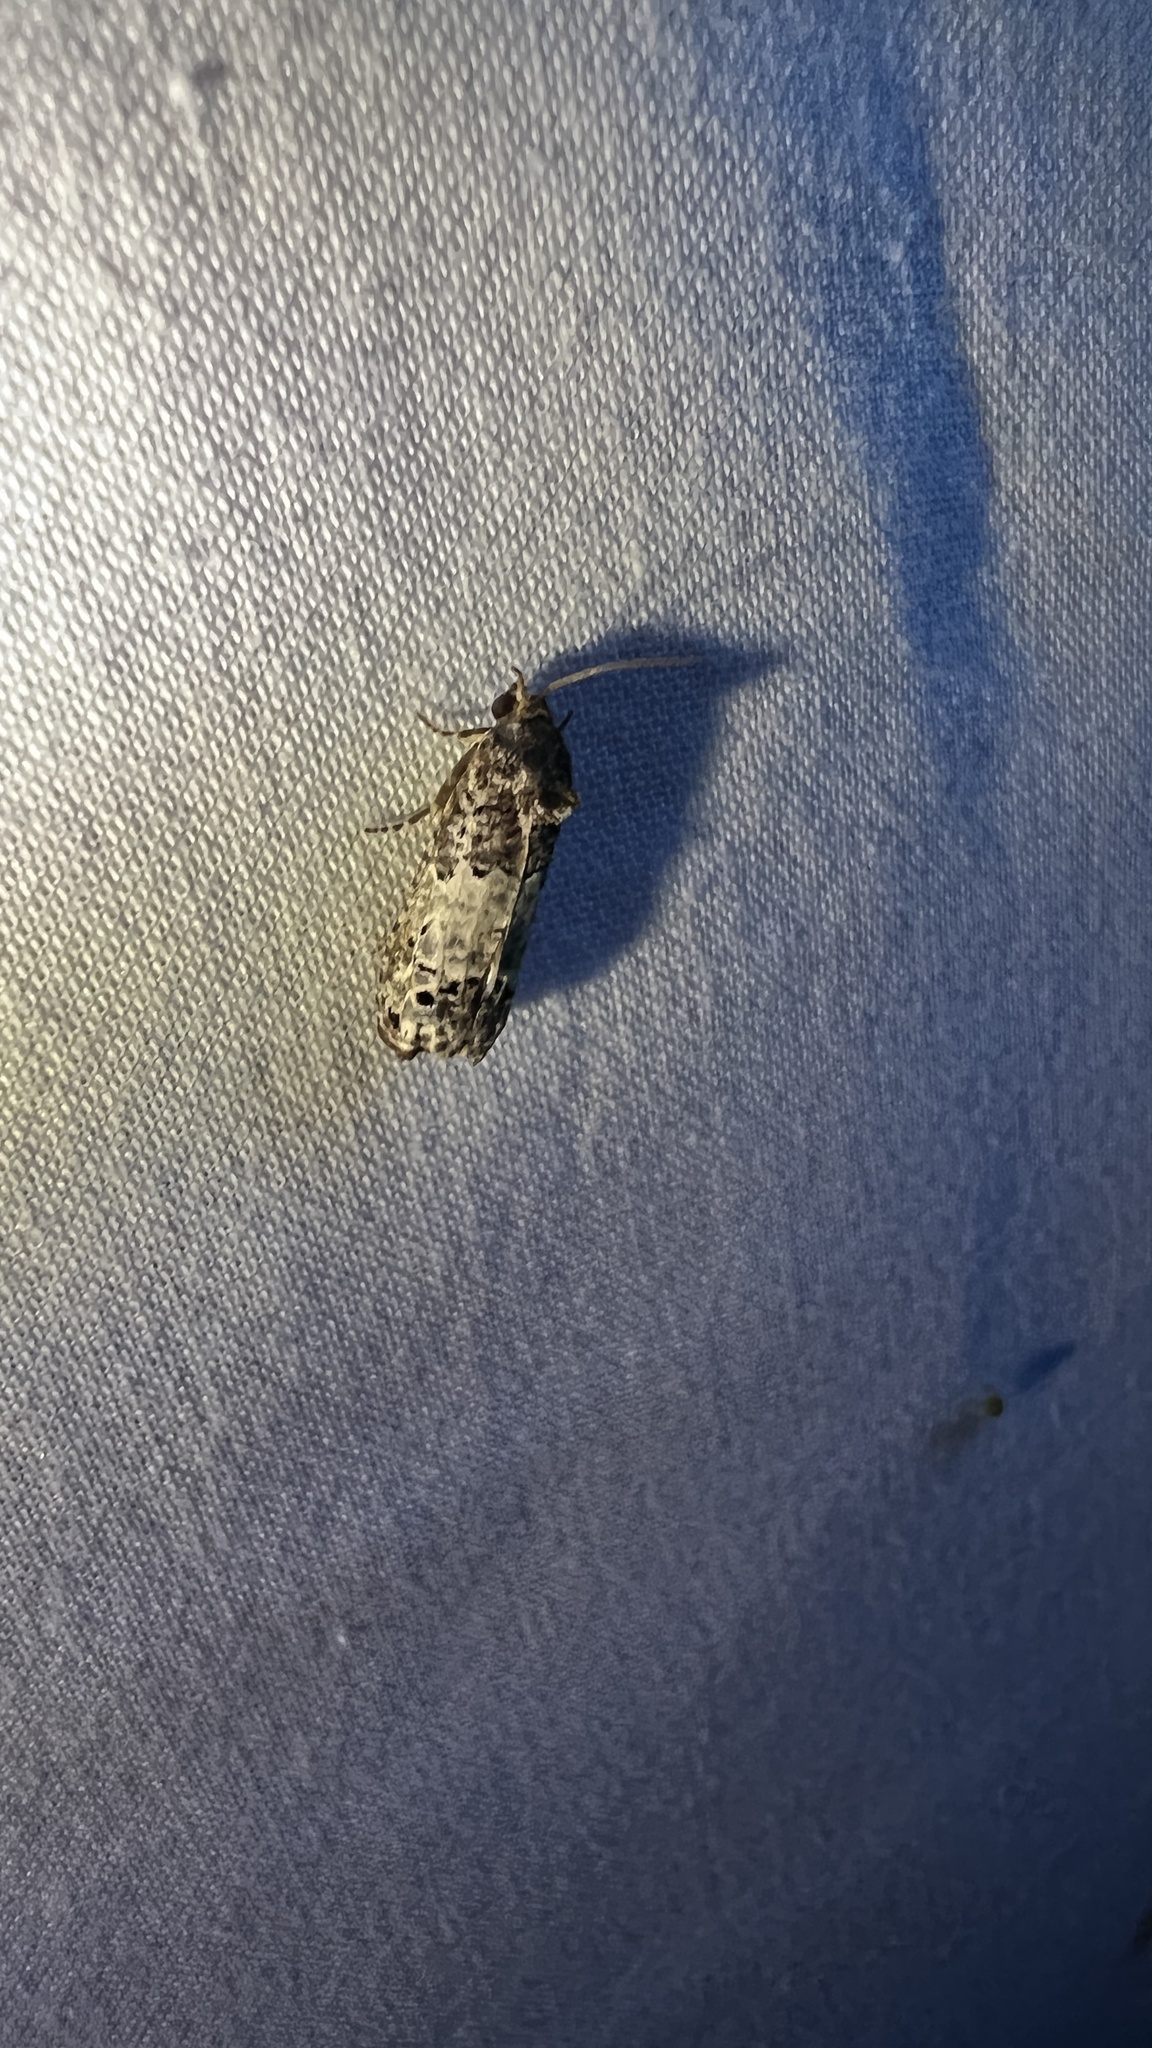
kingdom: Animalia
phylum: Arthropoda
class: Insecta
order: Lepidoptera
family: Tortricidae
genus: Epiblema
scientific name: Epiblema carolinana
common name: Gray-blotched epiblema moth
